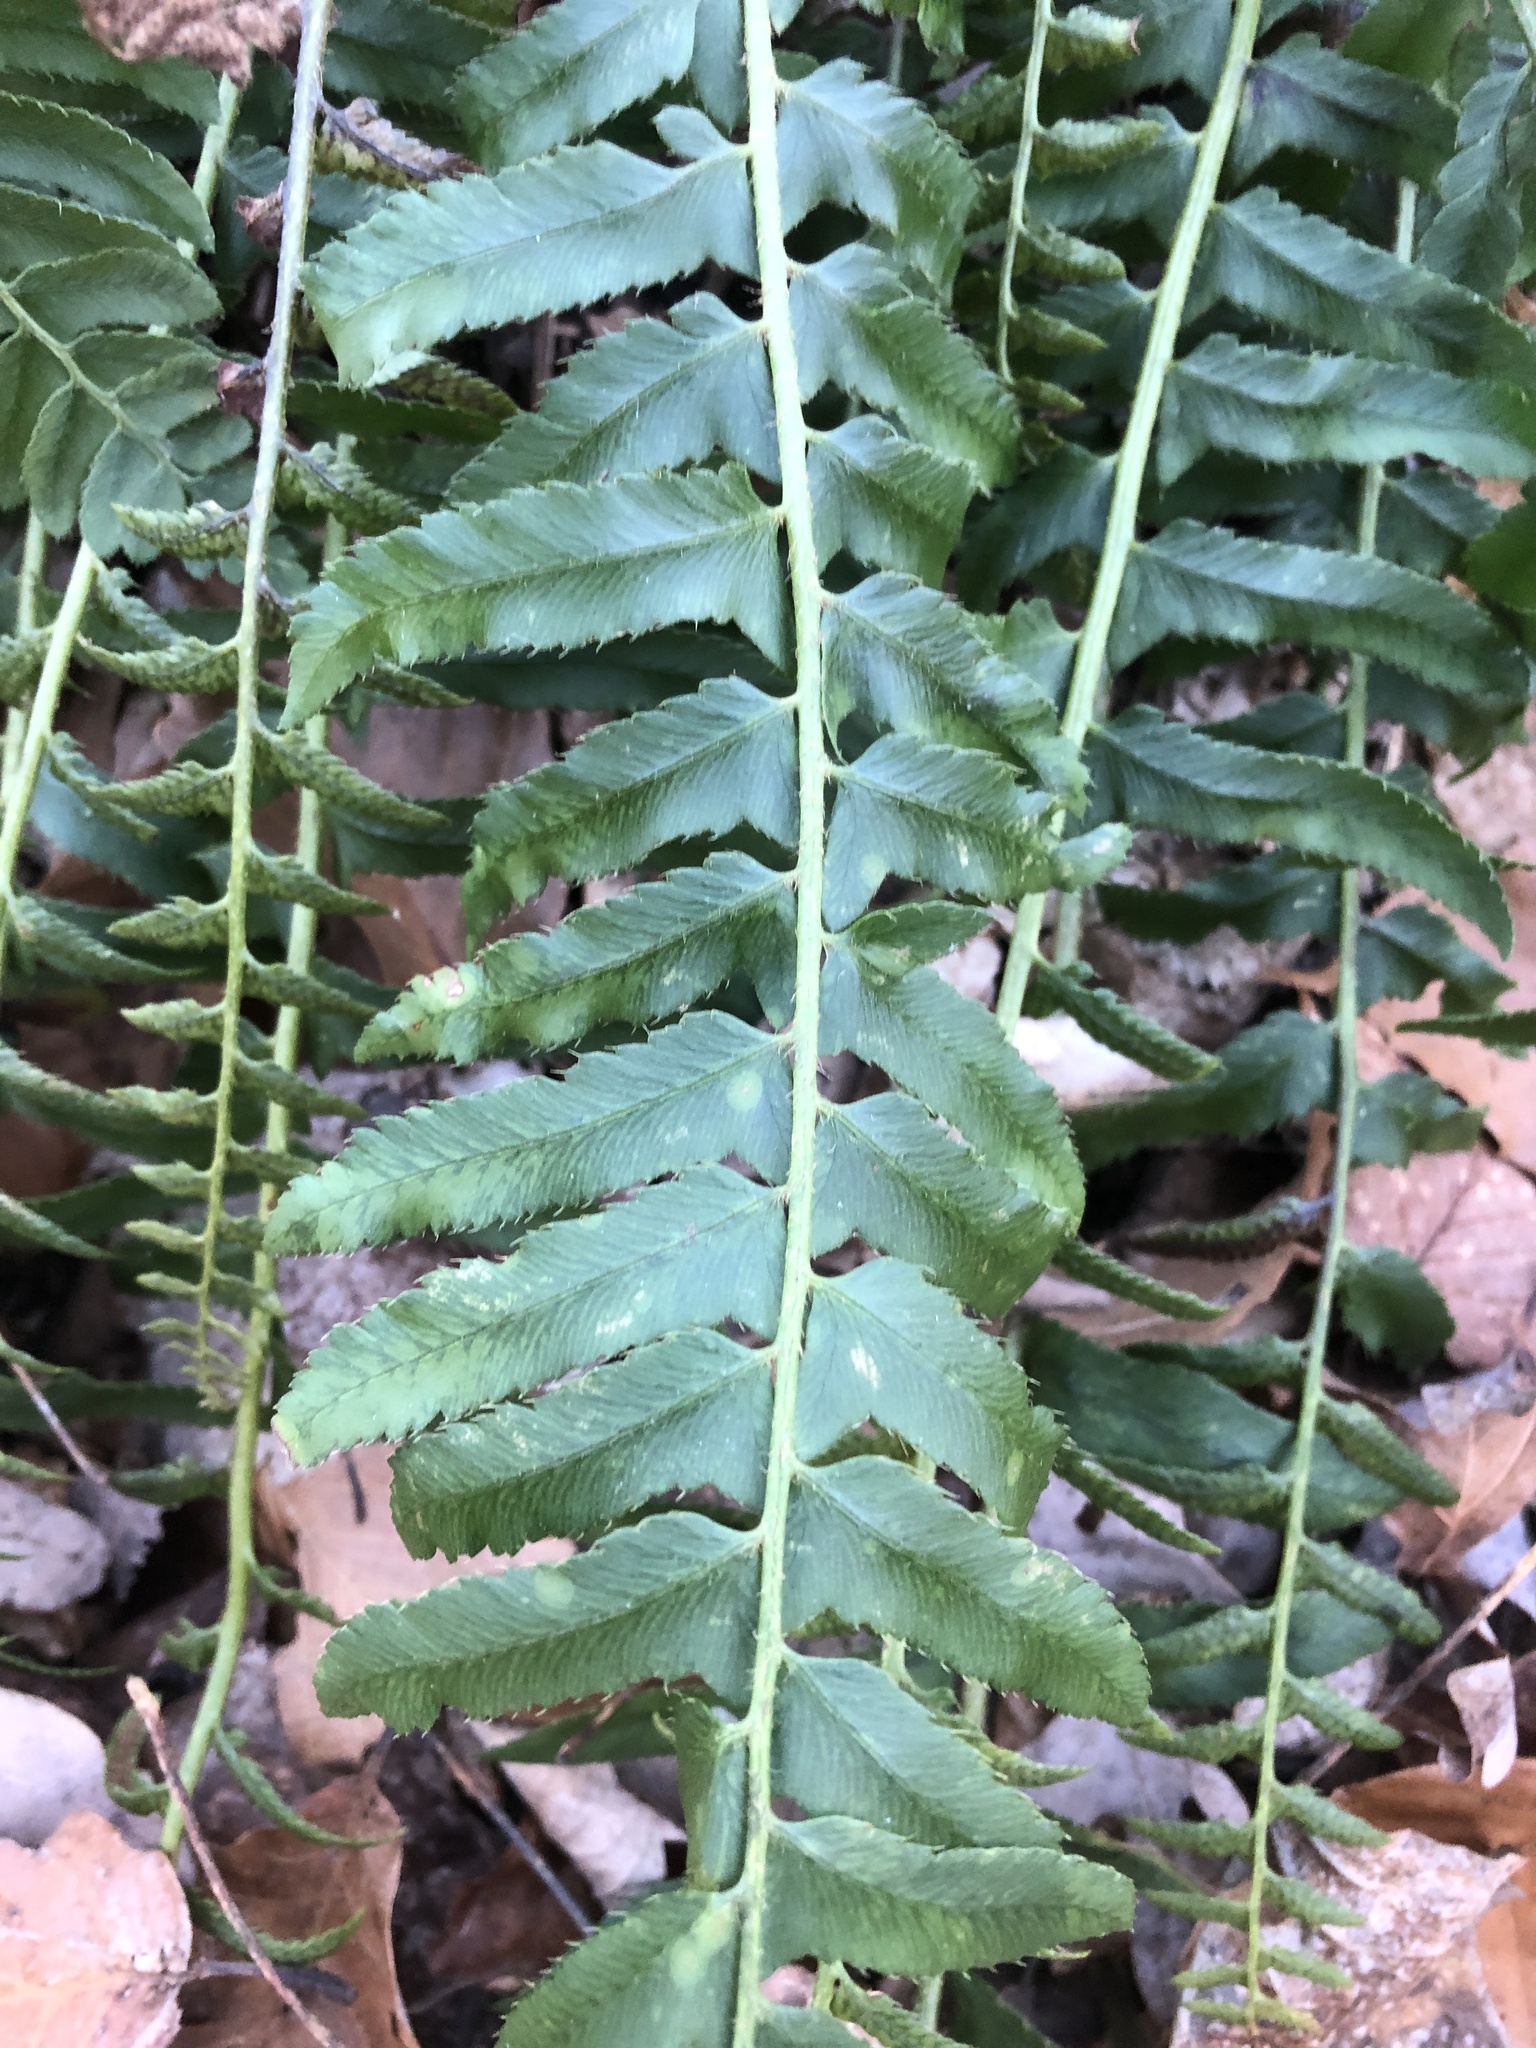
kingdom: Plantae
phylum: Tracheophyta
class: Polypodiopsida
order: Polypodiales
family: Dryopteridaceae
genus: Polystichum
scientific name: Polystichum acrostichoides
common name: Christmas fern
